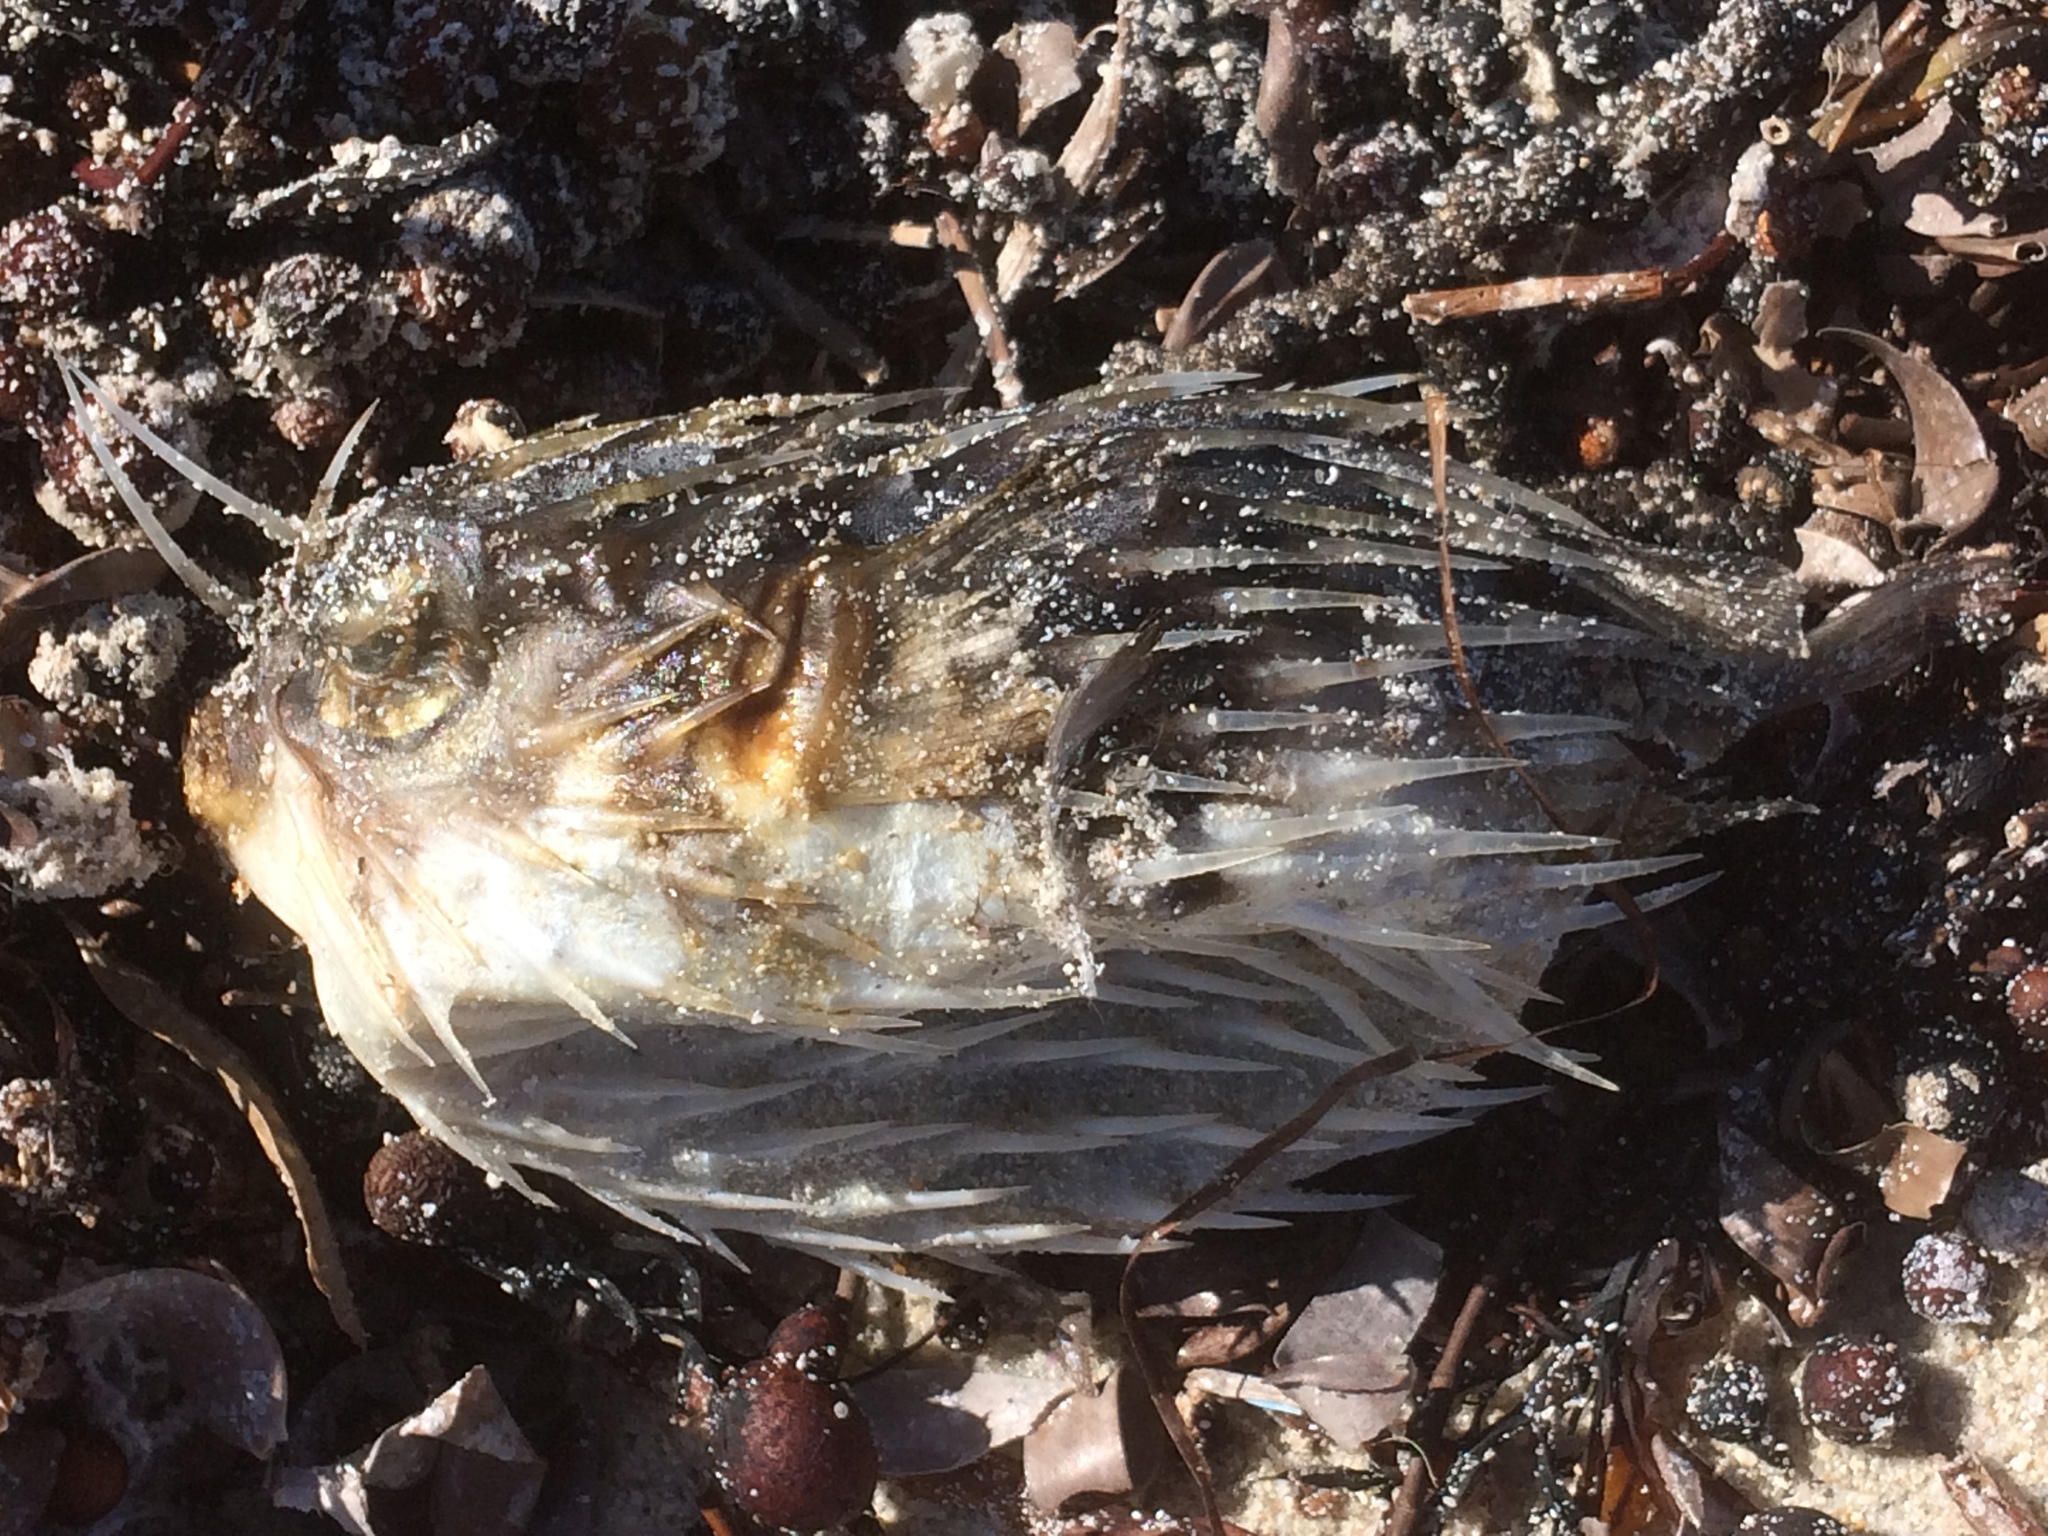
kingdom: Animalia
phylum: Chordata
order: Tetraodontiformes
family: Diodontidae
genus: Diodon
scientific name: Diodon nicthemerus
